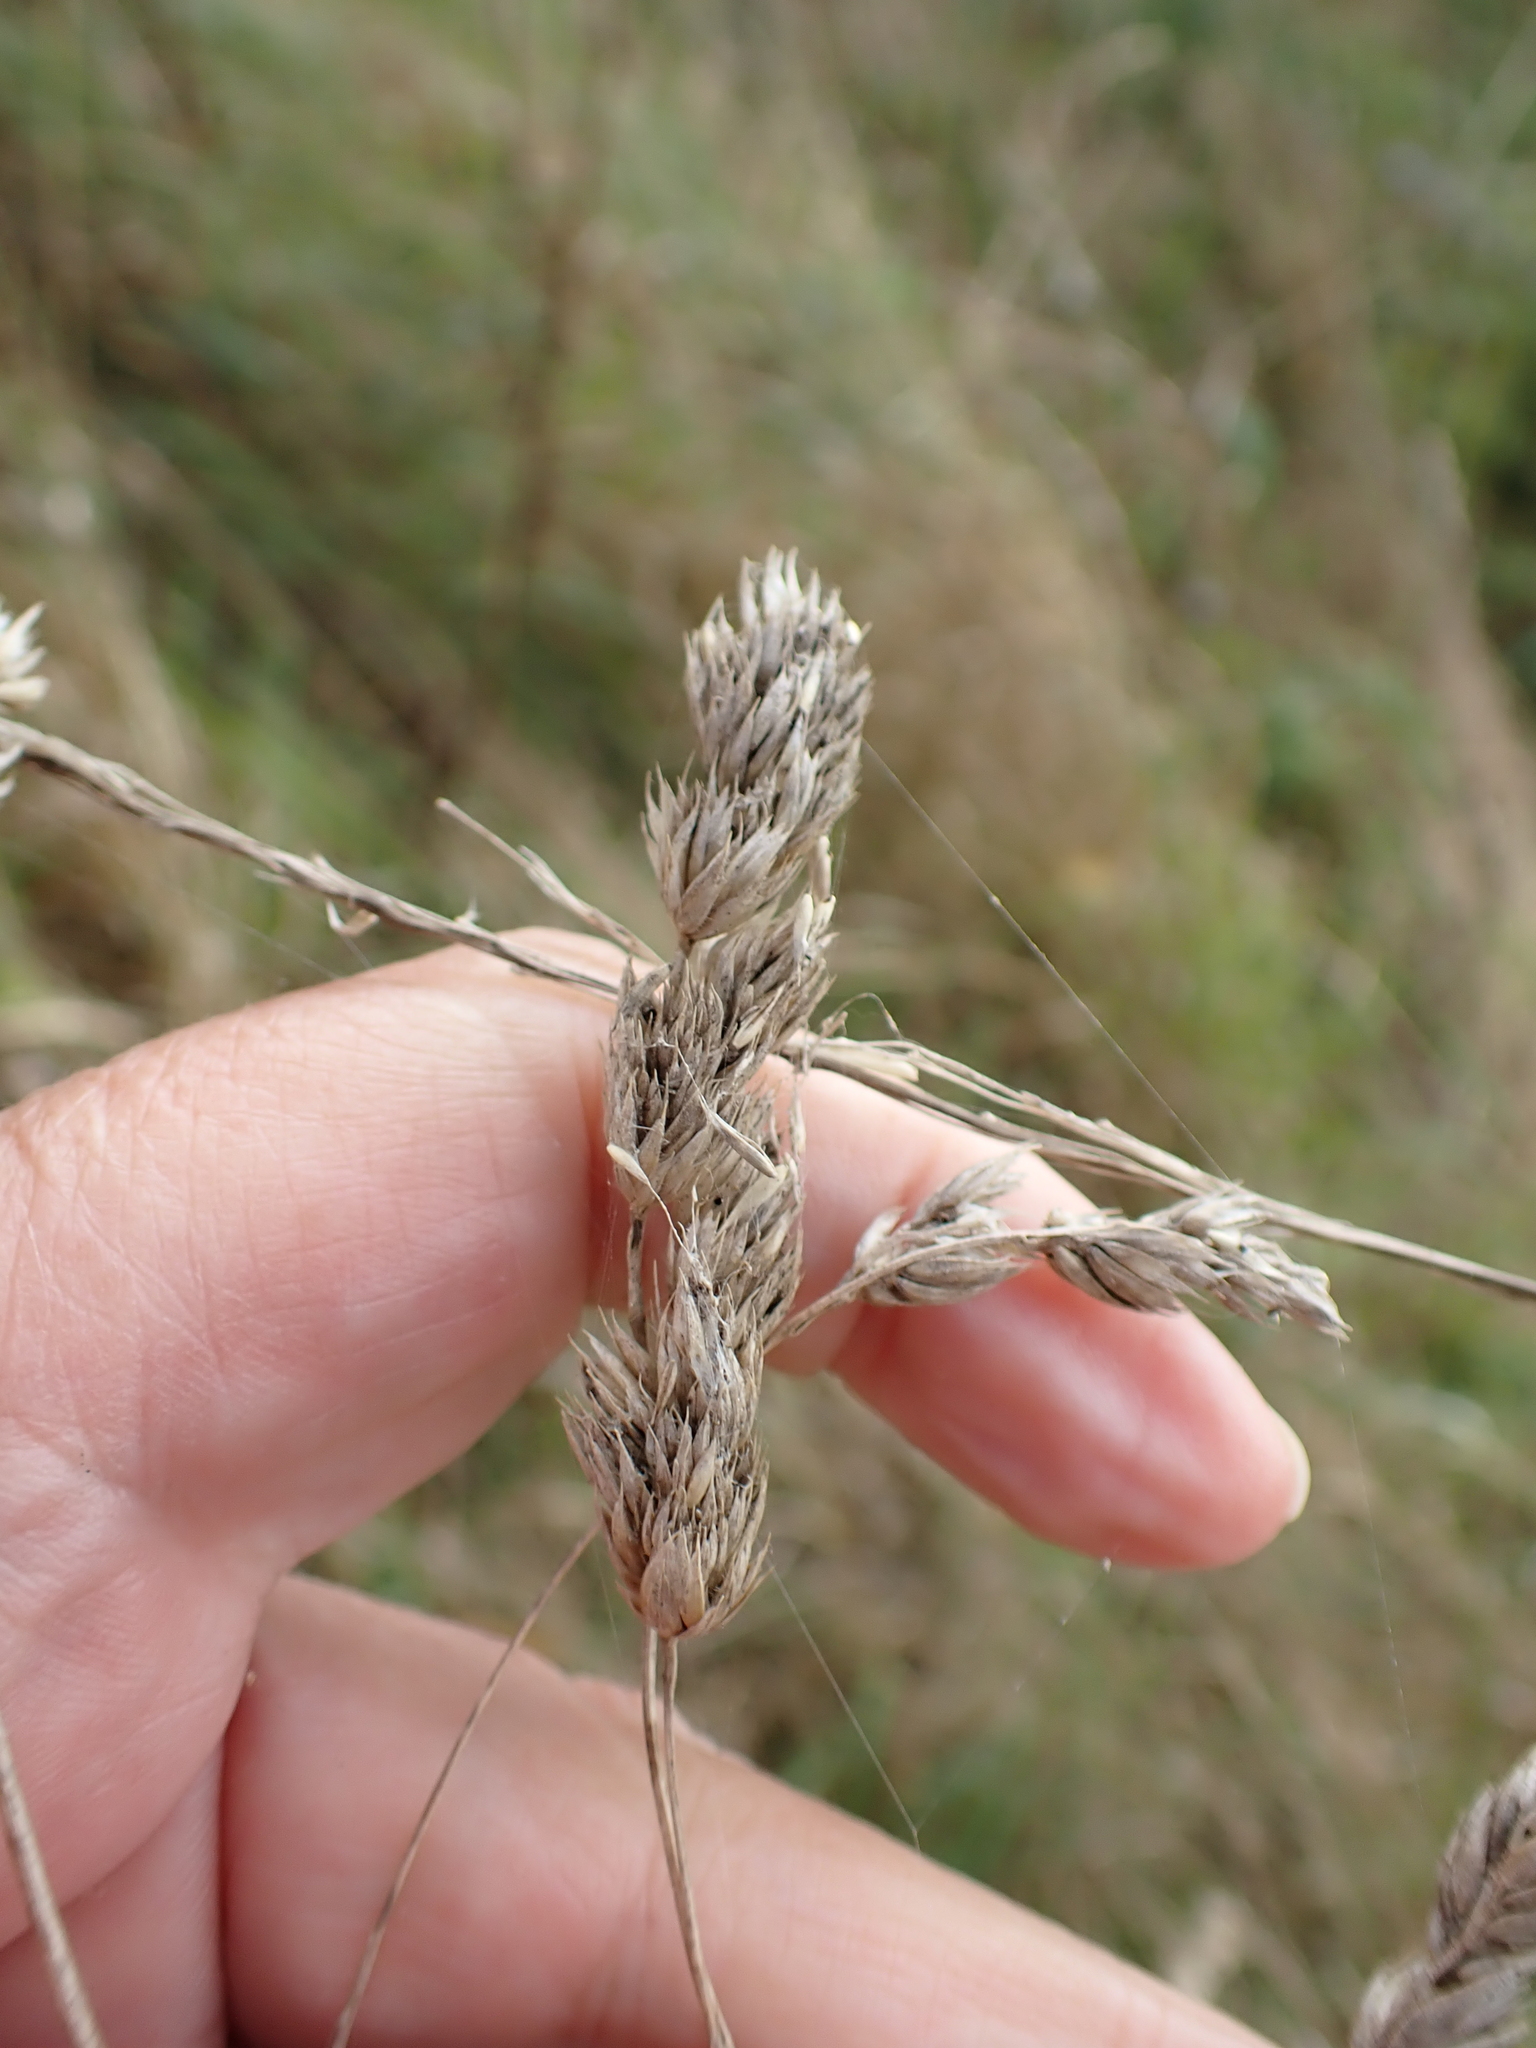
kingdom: Plantae
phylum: Tracheophyta
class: Liliopsida
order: Poales
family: Poaceae
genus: Dactylis
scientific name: Dactylis glomerata
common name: Orchardgrass
